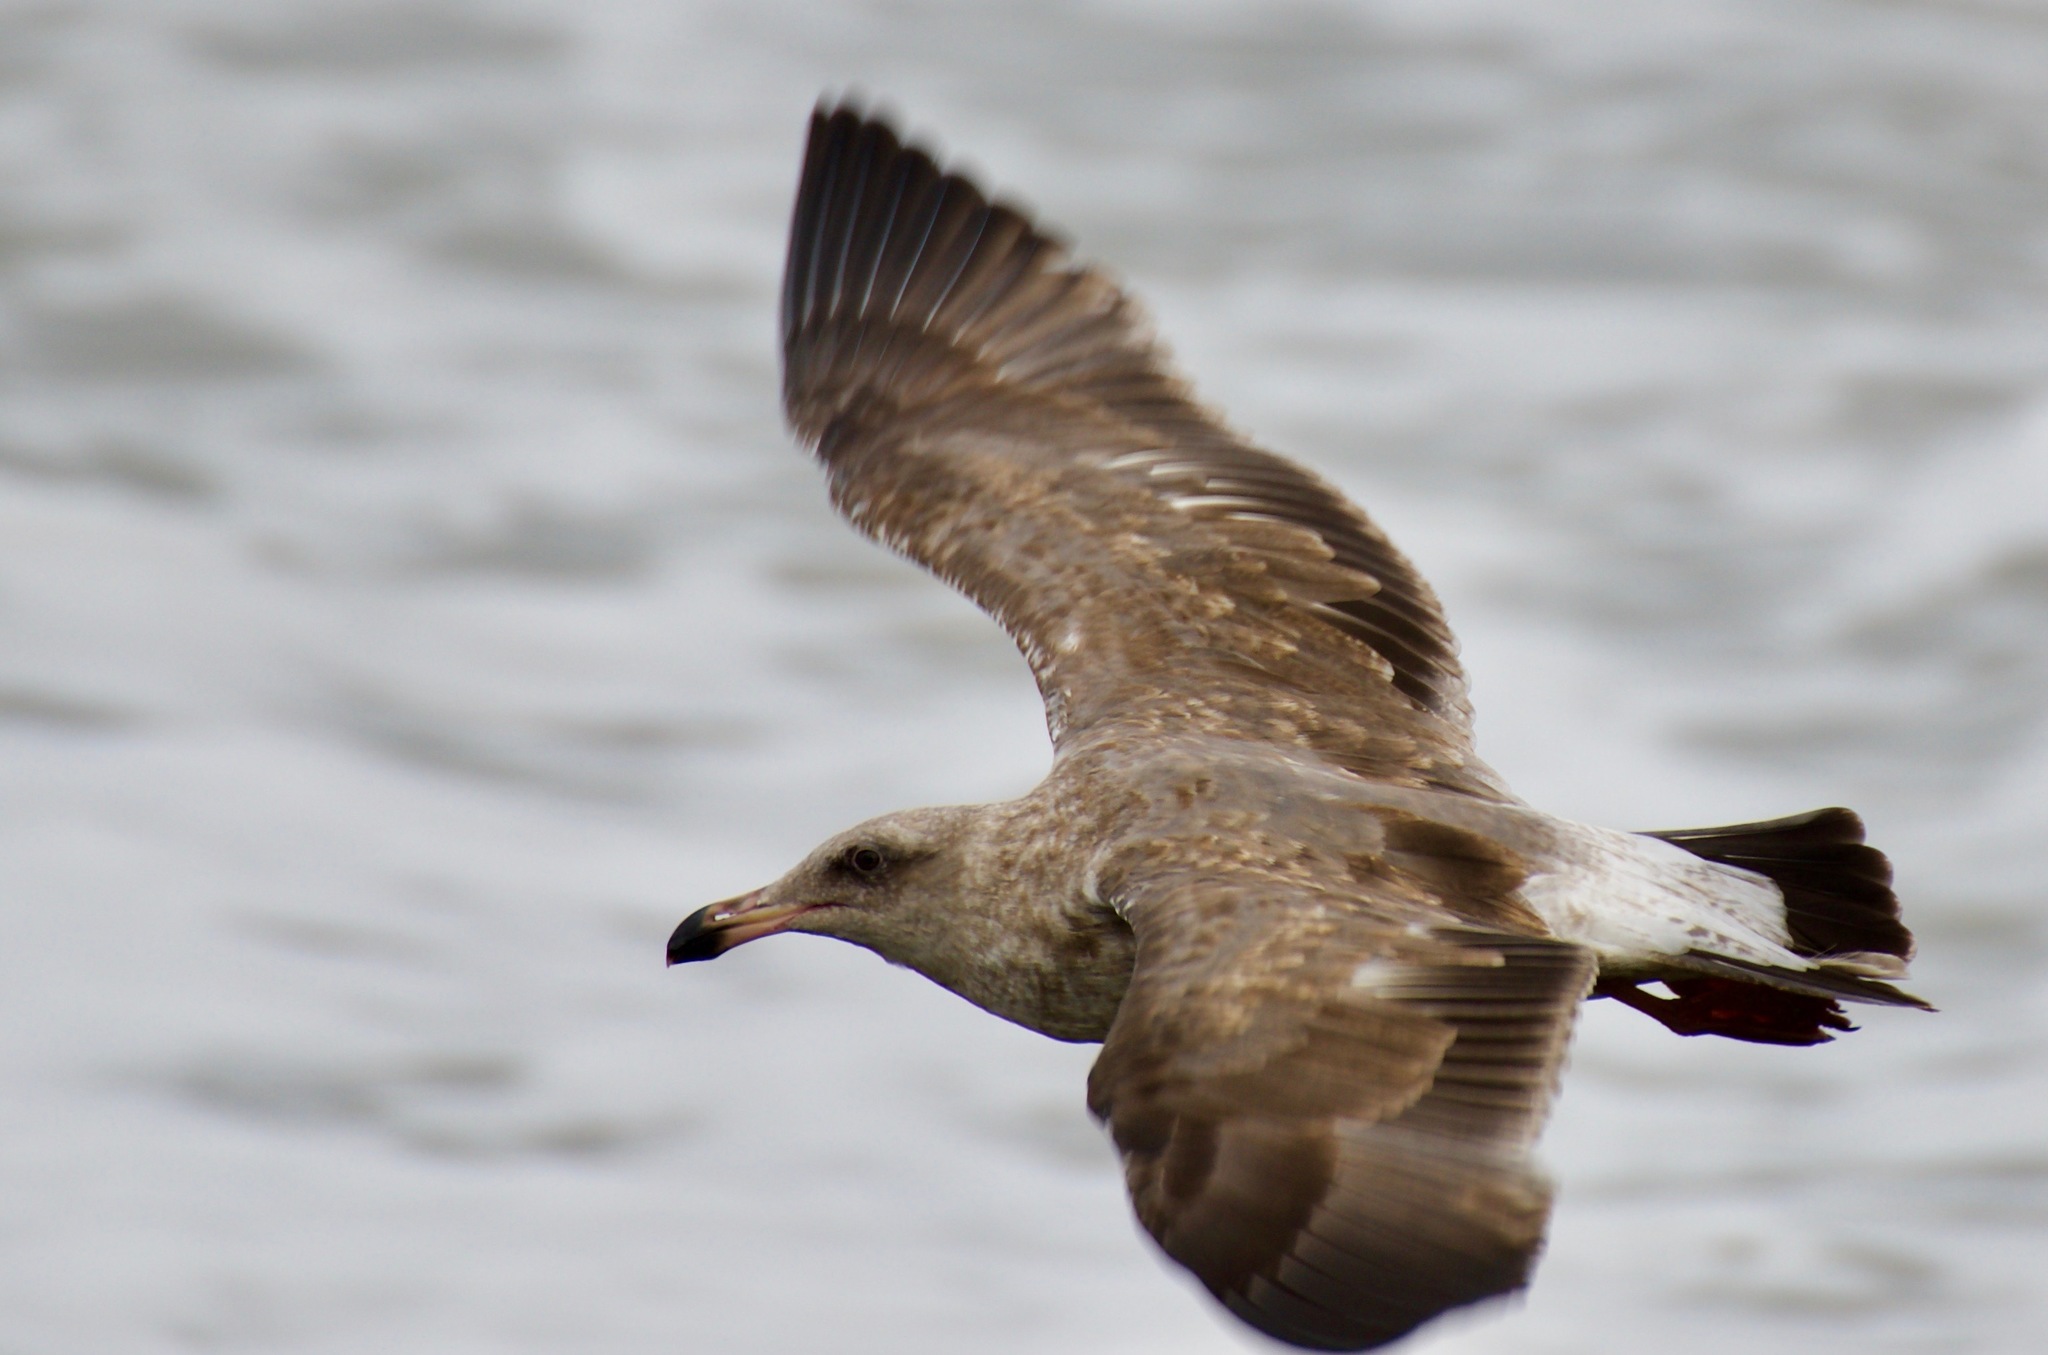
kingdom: Animalia
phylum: Chordata
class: Aves
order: Charadriiformes
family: Laridae
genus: Larus
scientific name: Larus occidentalis
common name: Western gull
